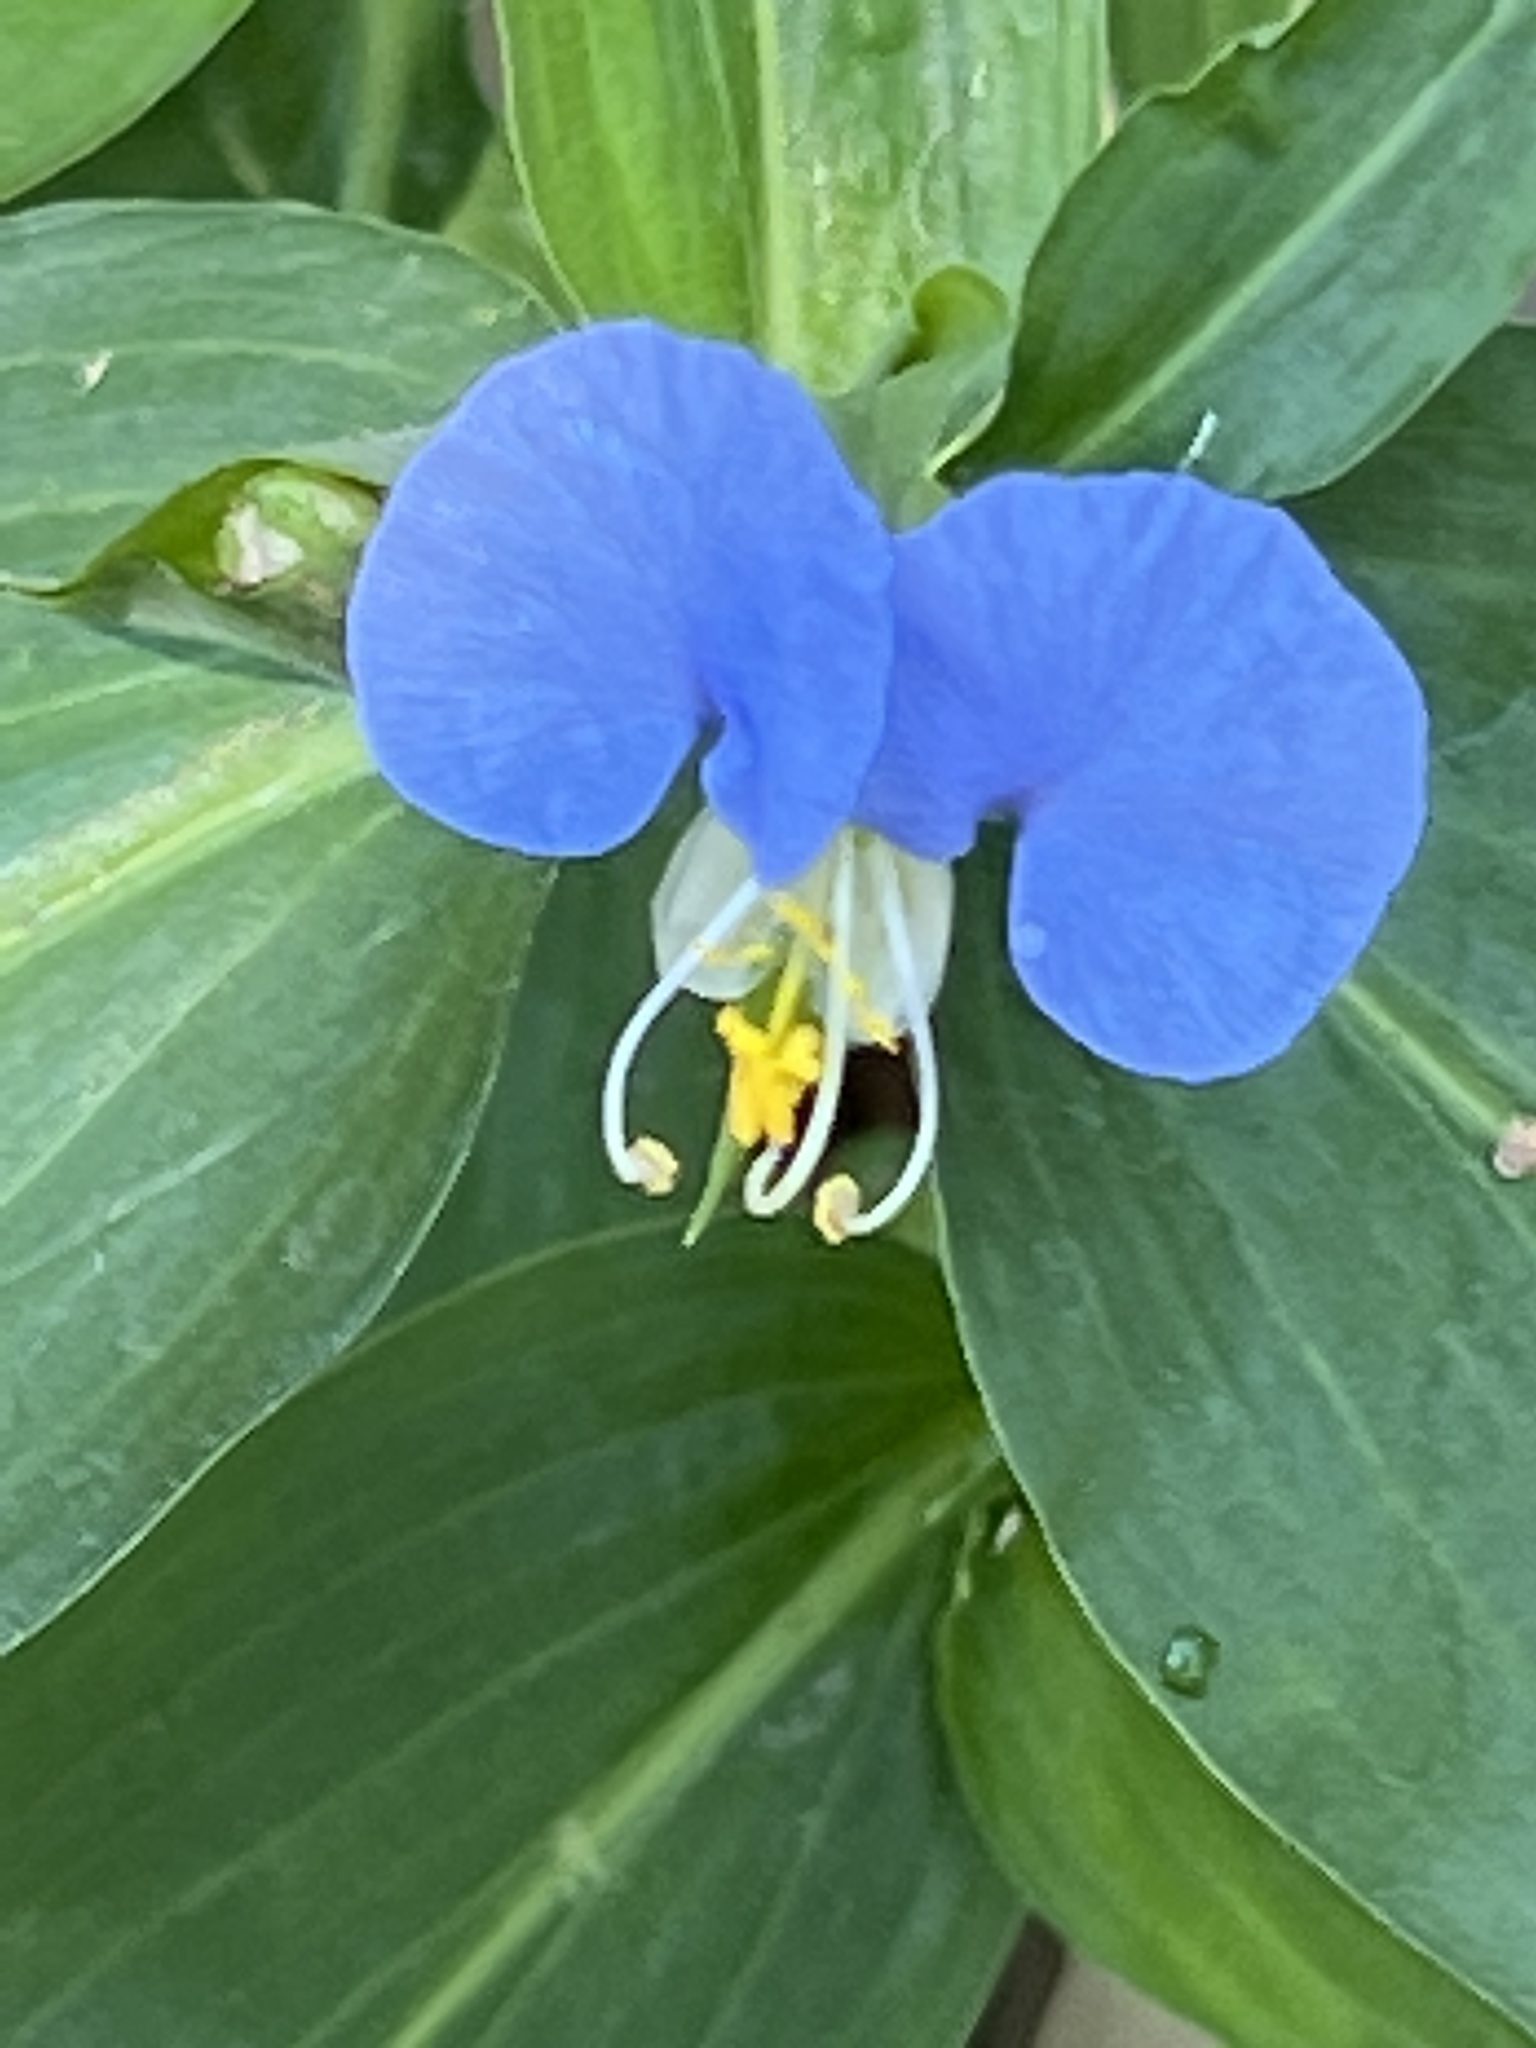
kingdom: Plantae
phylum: Tracheophyta
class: Liliopsida
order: Commelinales
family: Commelinaceae
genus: Commelina
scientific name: Commelina erecta
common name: Blousel blommetjie
